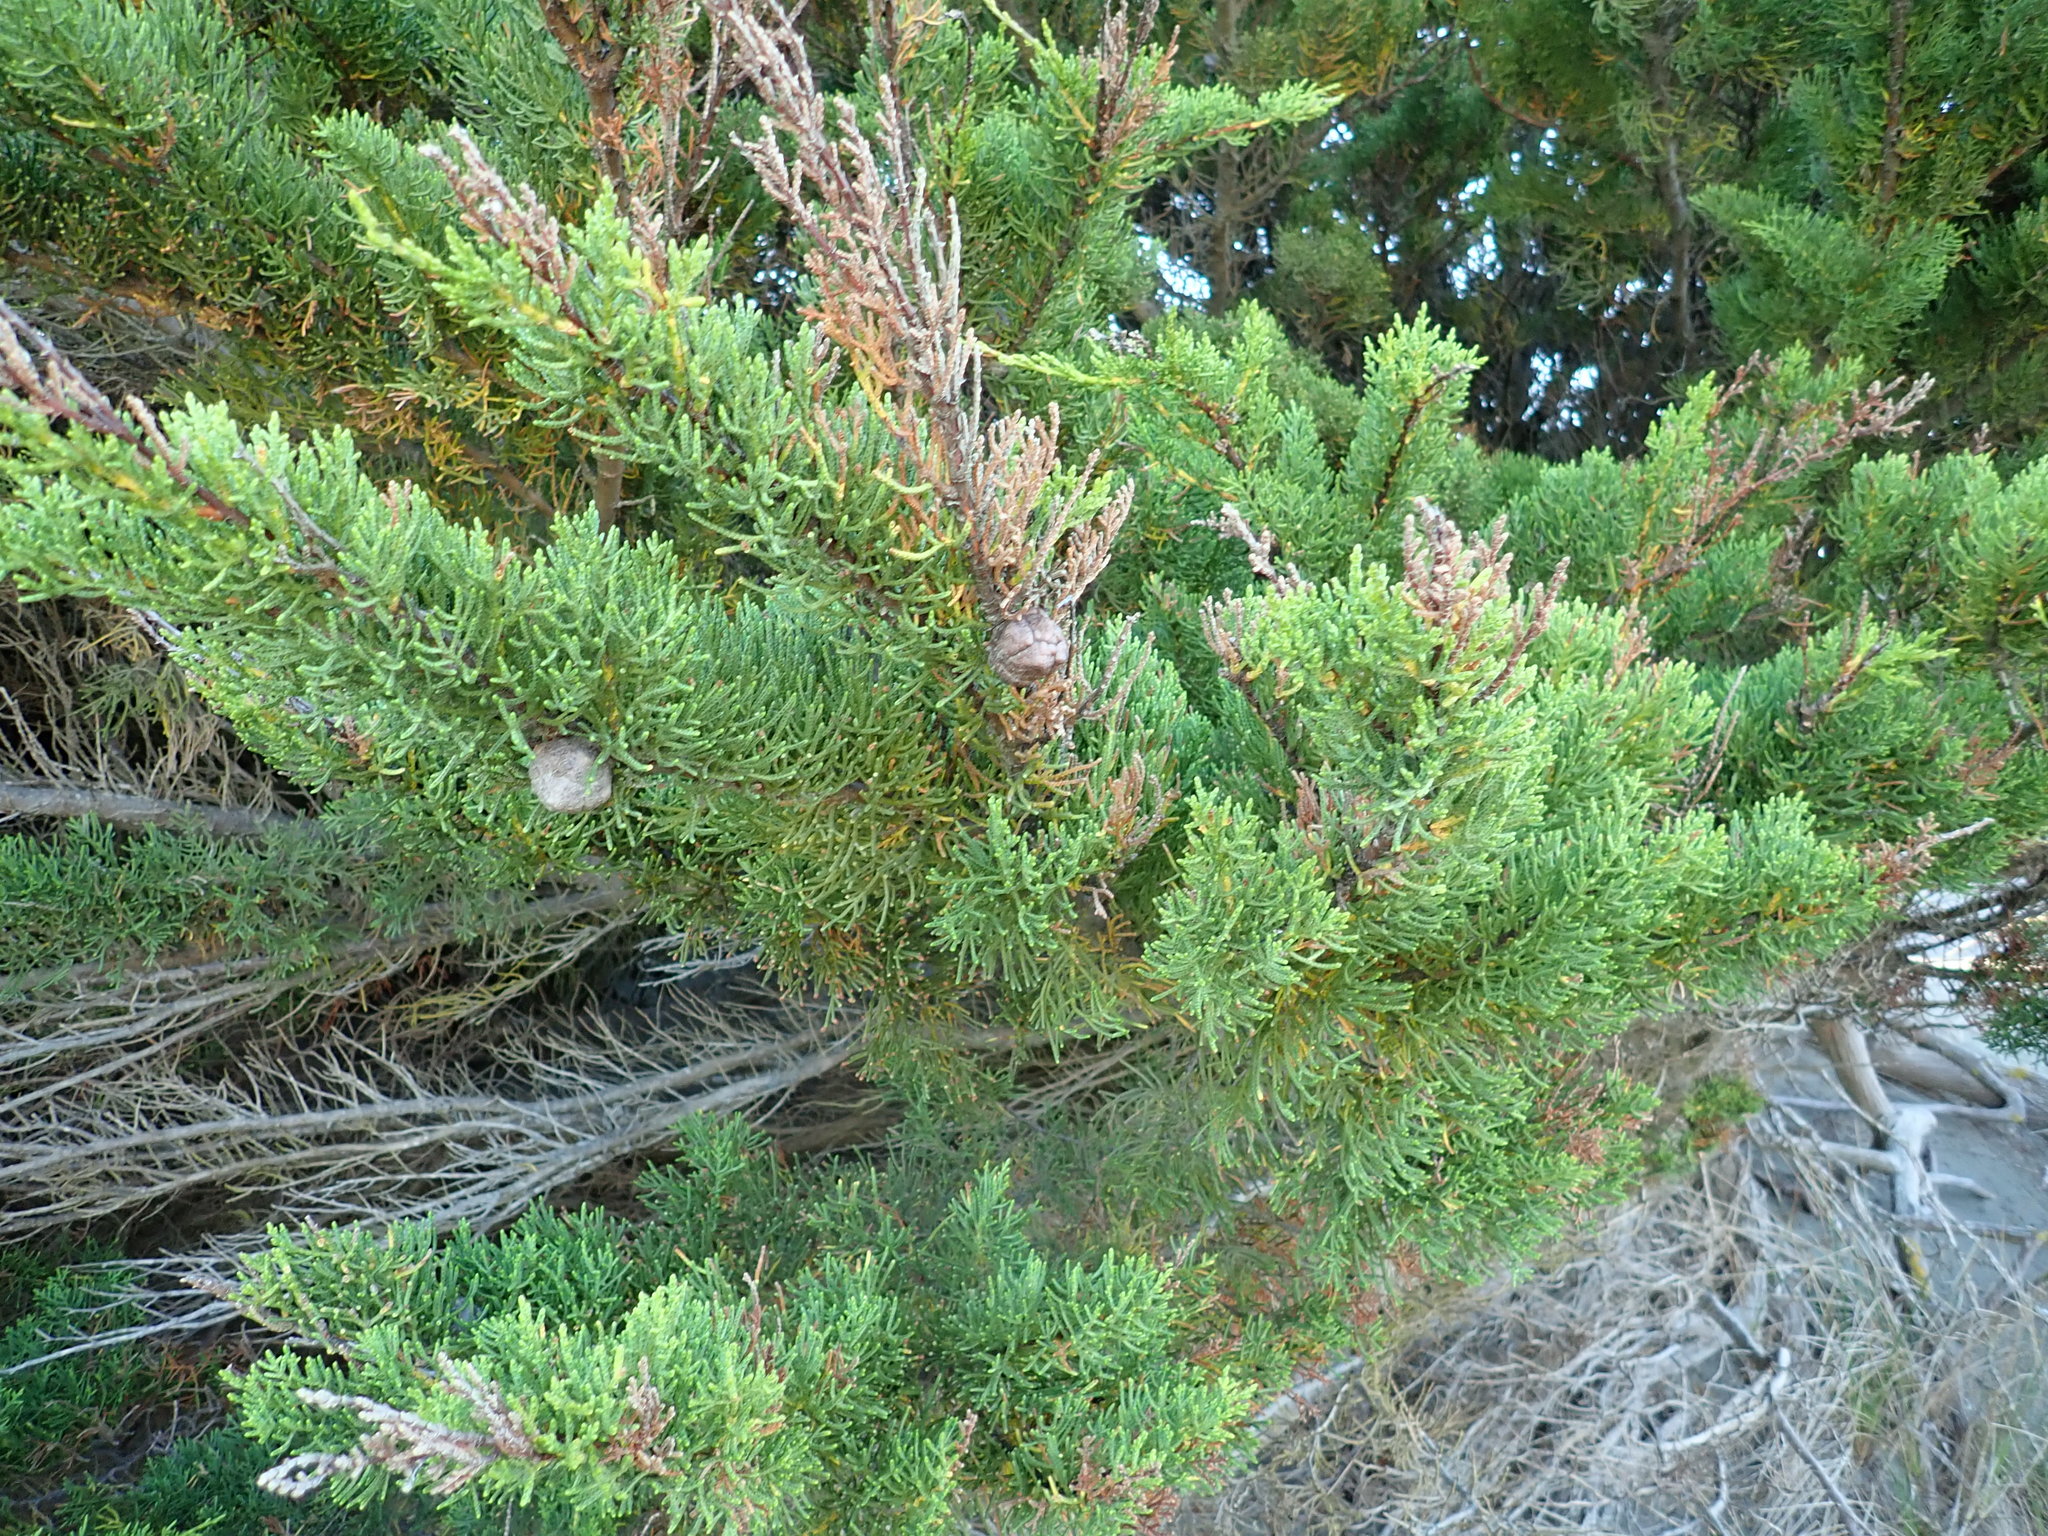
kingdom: Plantae
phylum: Tracheophyta
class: Pinopsida
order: Pinales
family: Cupressaceae
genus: Cupressus
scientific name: Cupressus macrocarpa
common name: Monterey cypress
